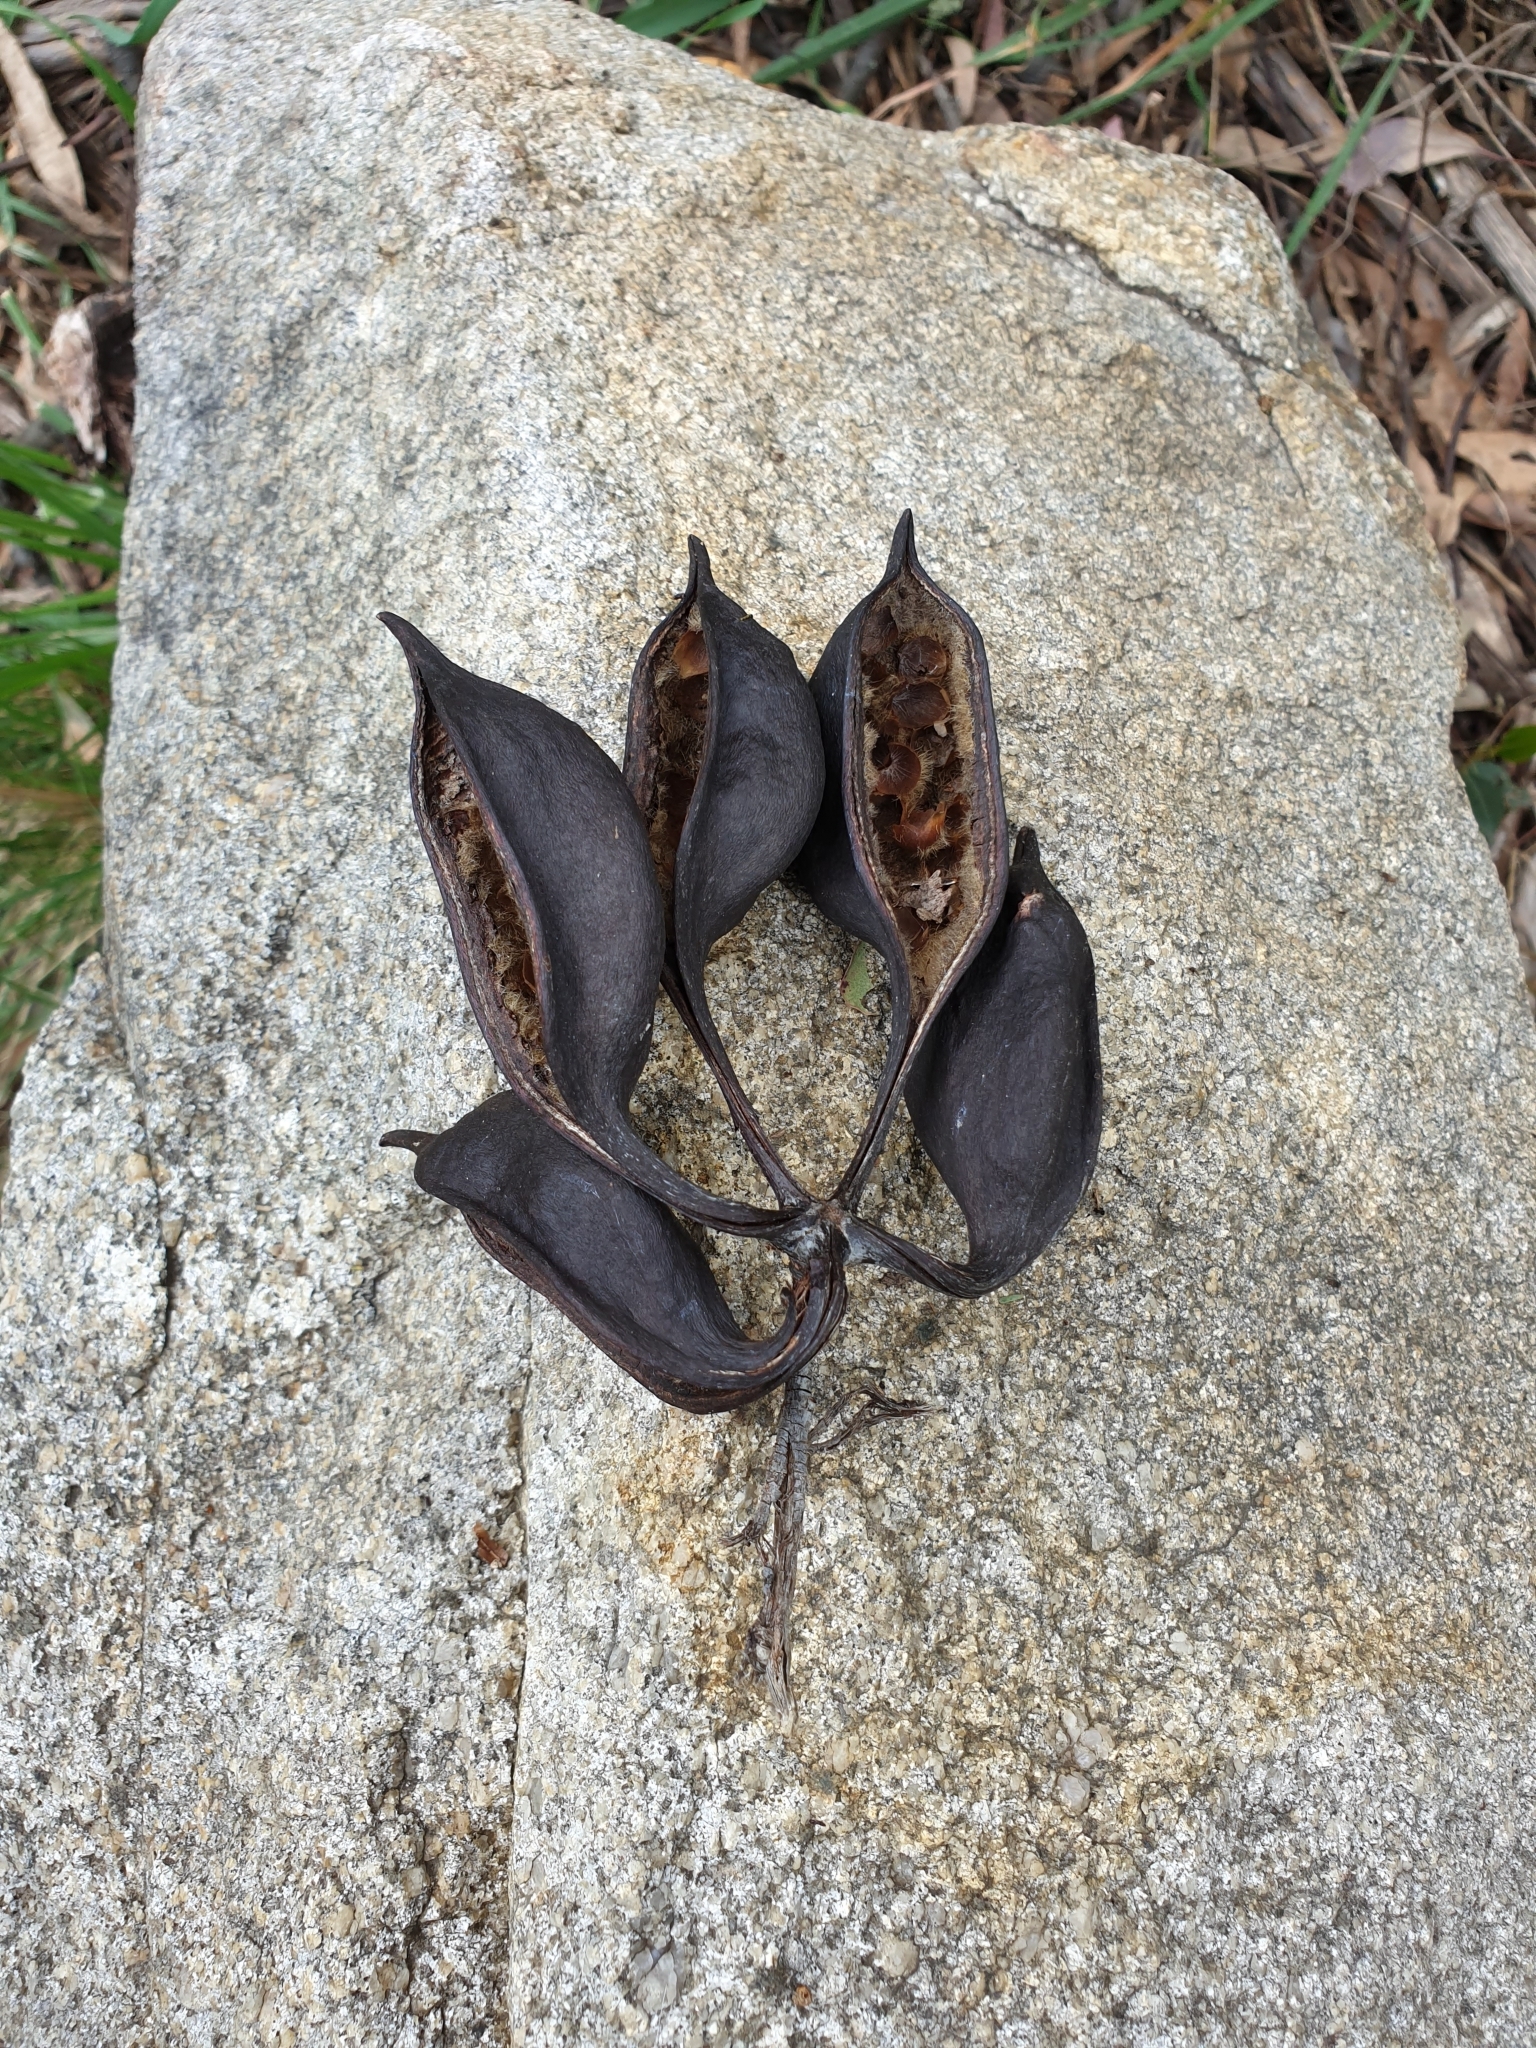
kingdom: Plantae
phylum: Tracheophyta
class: Magnoliopsida
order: Malvales
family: Malvaceae
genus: Brachychiton
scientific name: Brachychiton populneus
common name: Kurrajong
